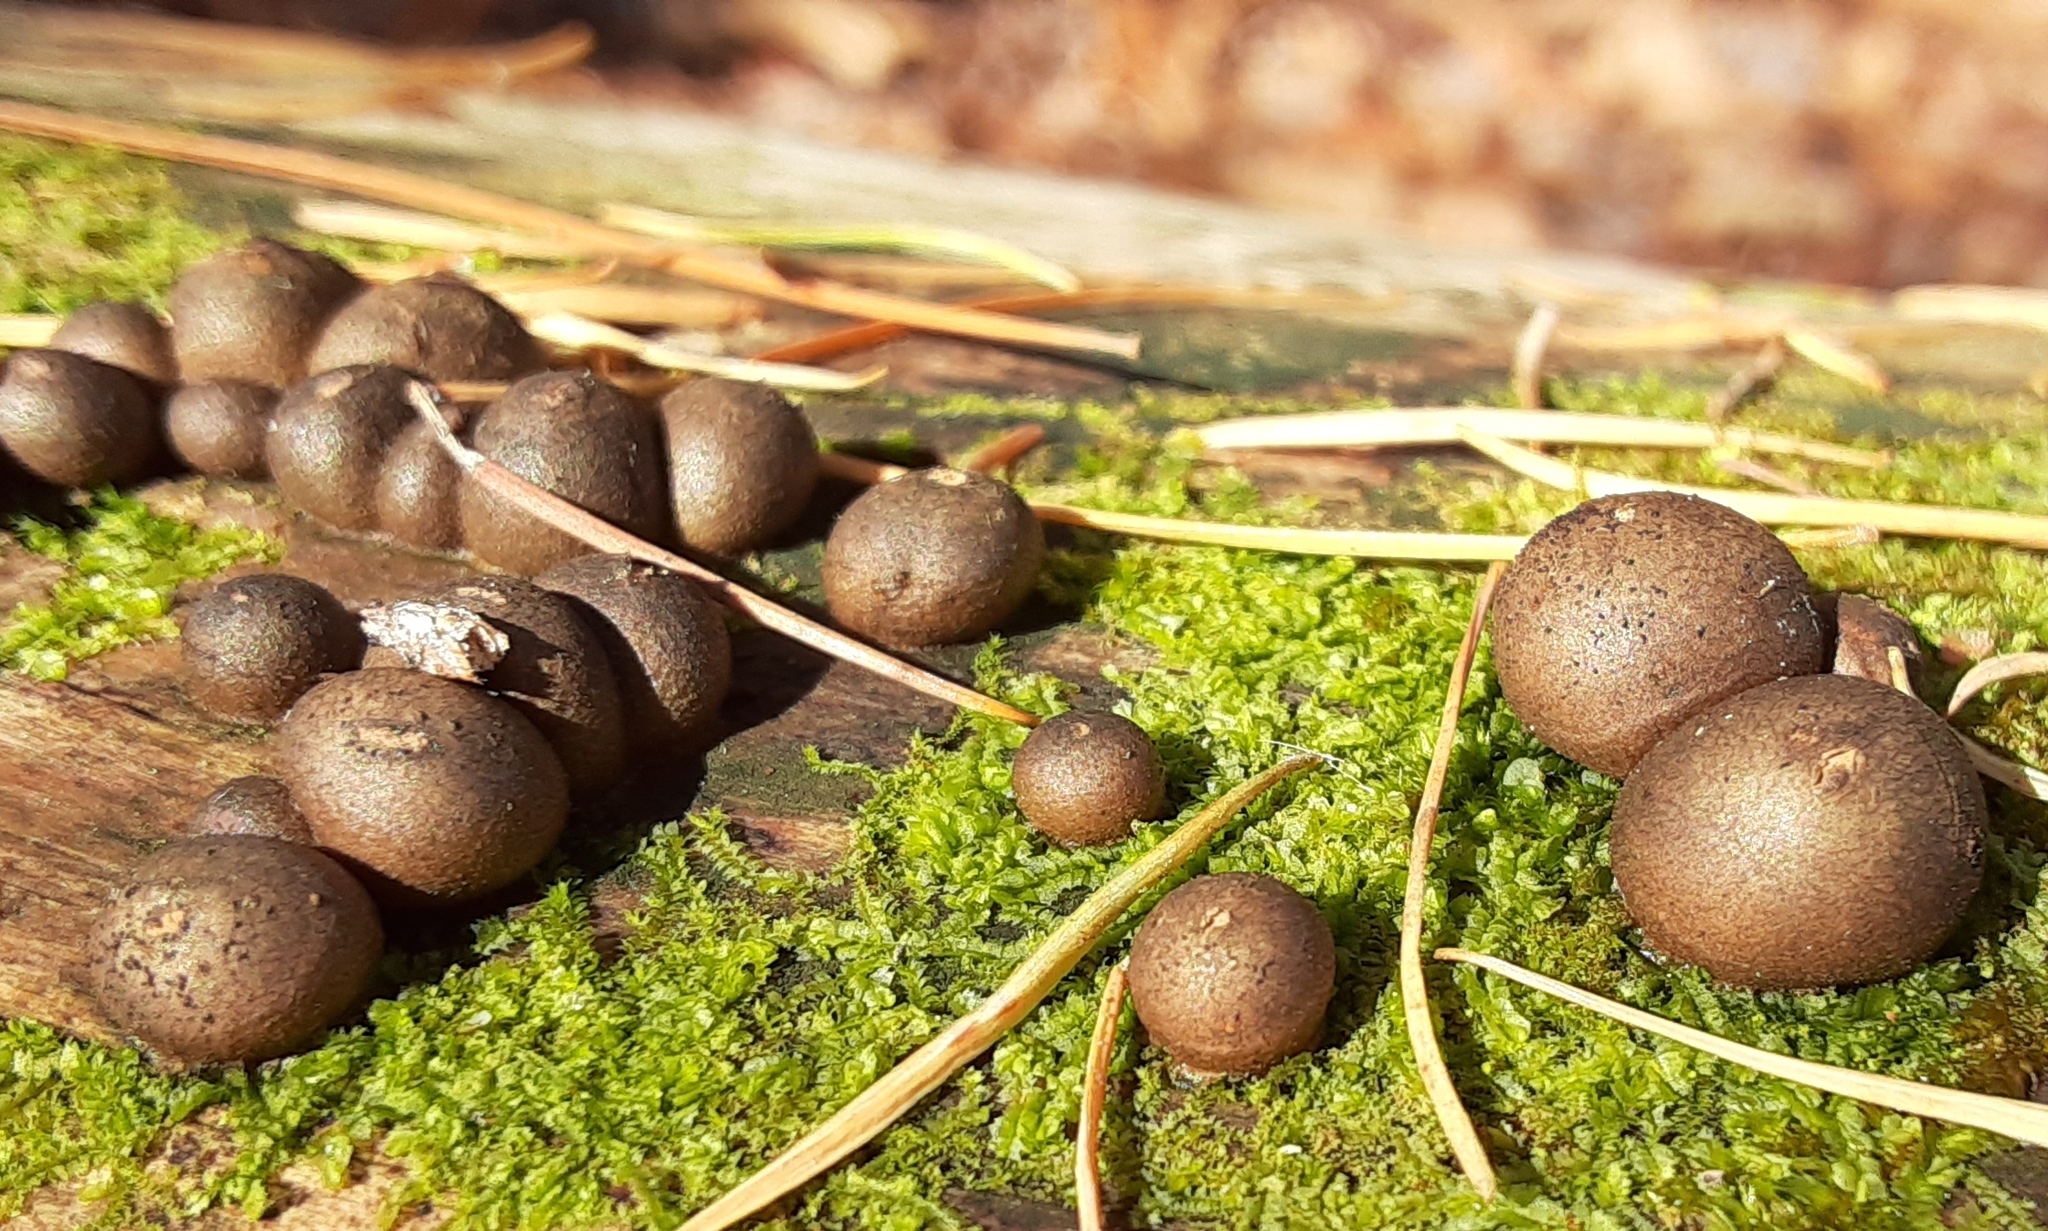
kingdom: Protozoa
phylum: Mycetozoa
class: Myxomycetes
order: Cribrariales
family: Tubiferaceae
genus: Lycogala
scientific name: Lycogala epidendrum
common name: Wolf's milk
